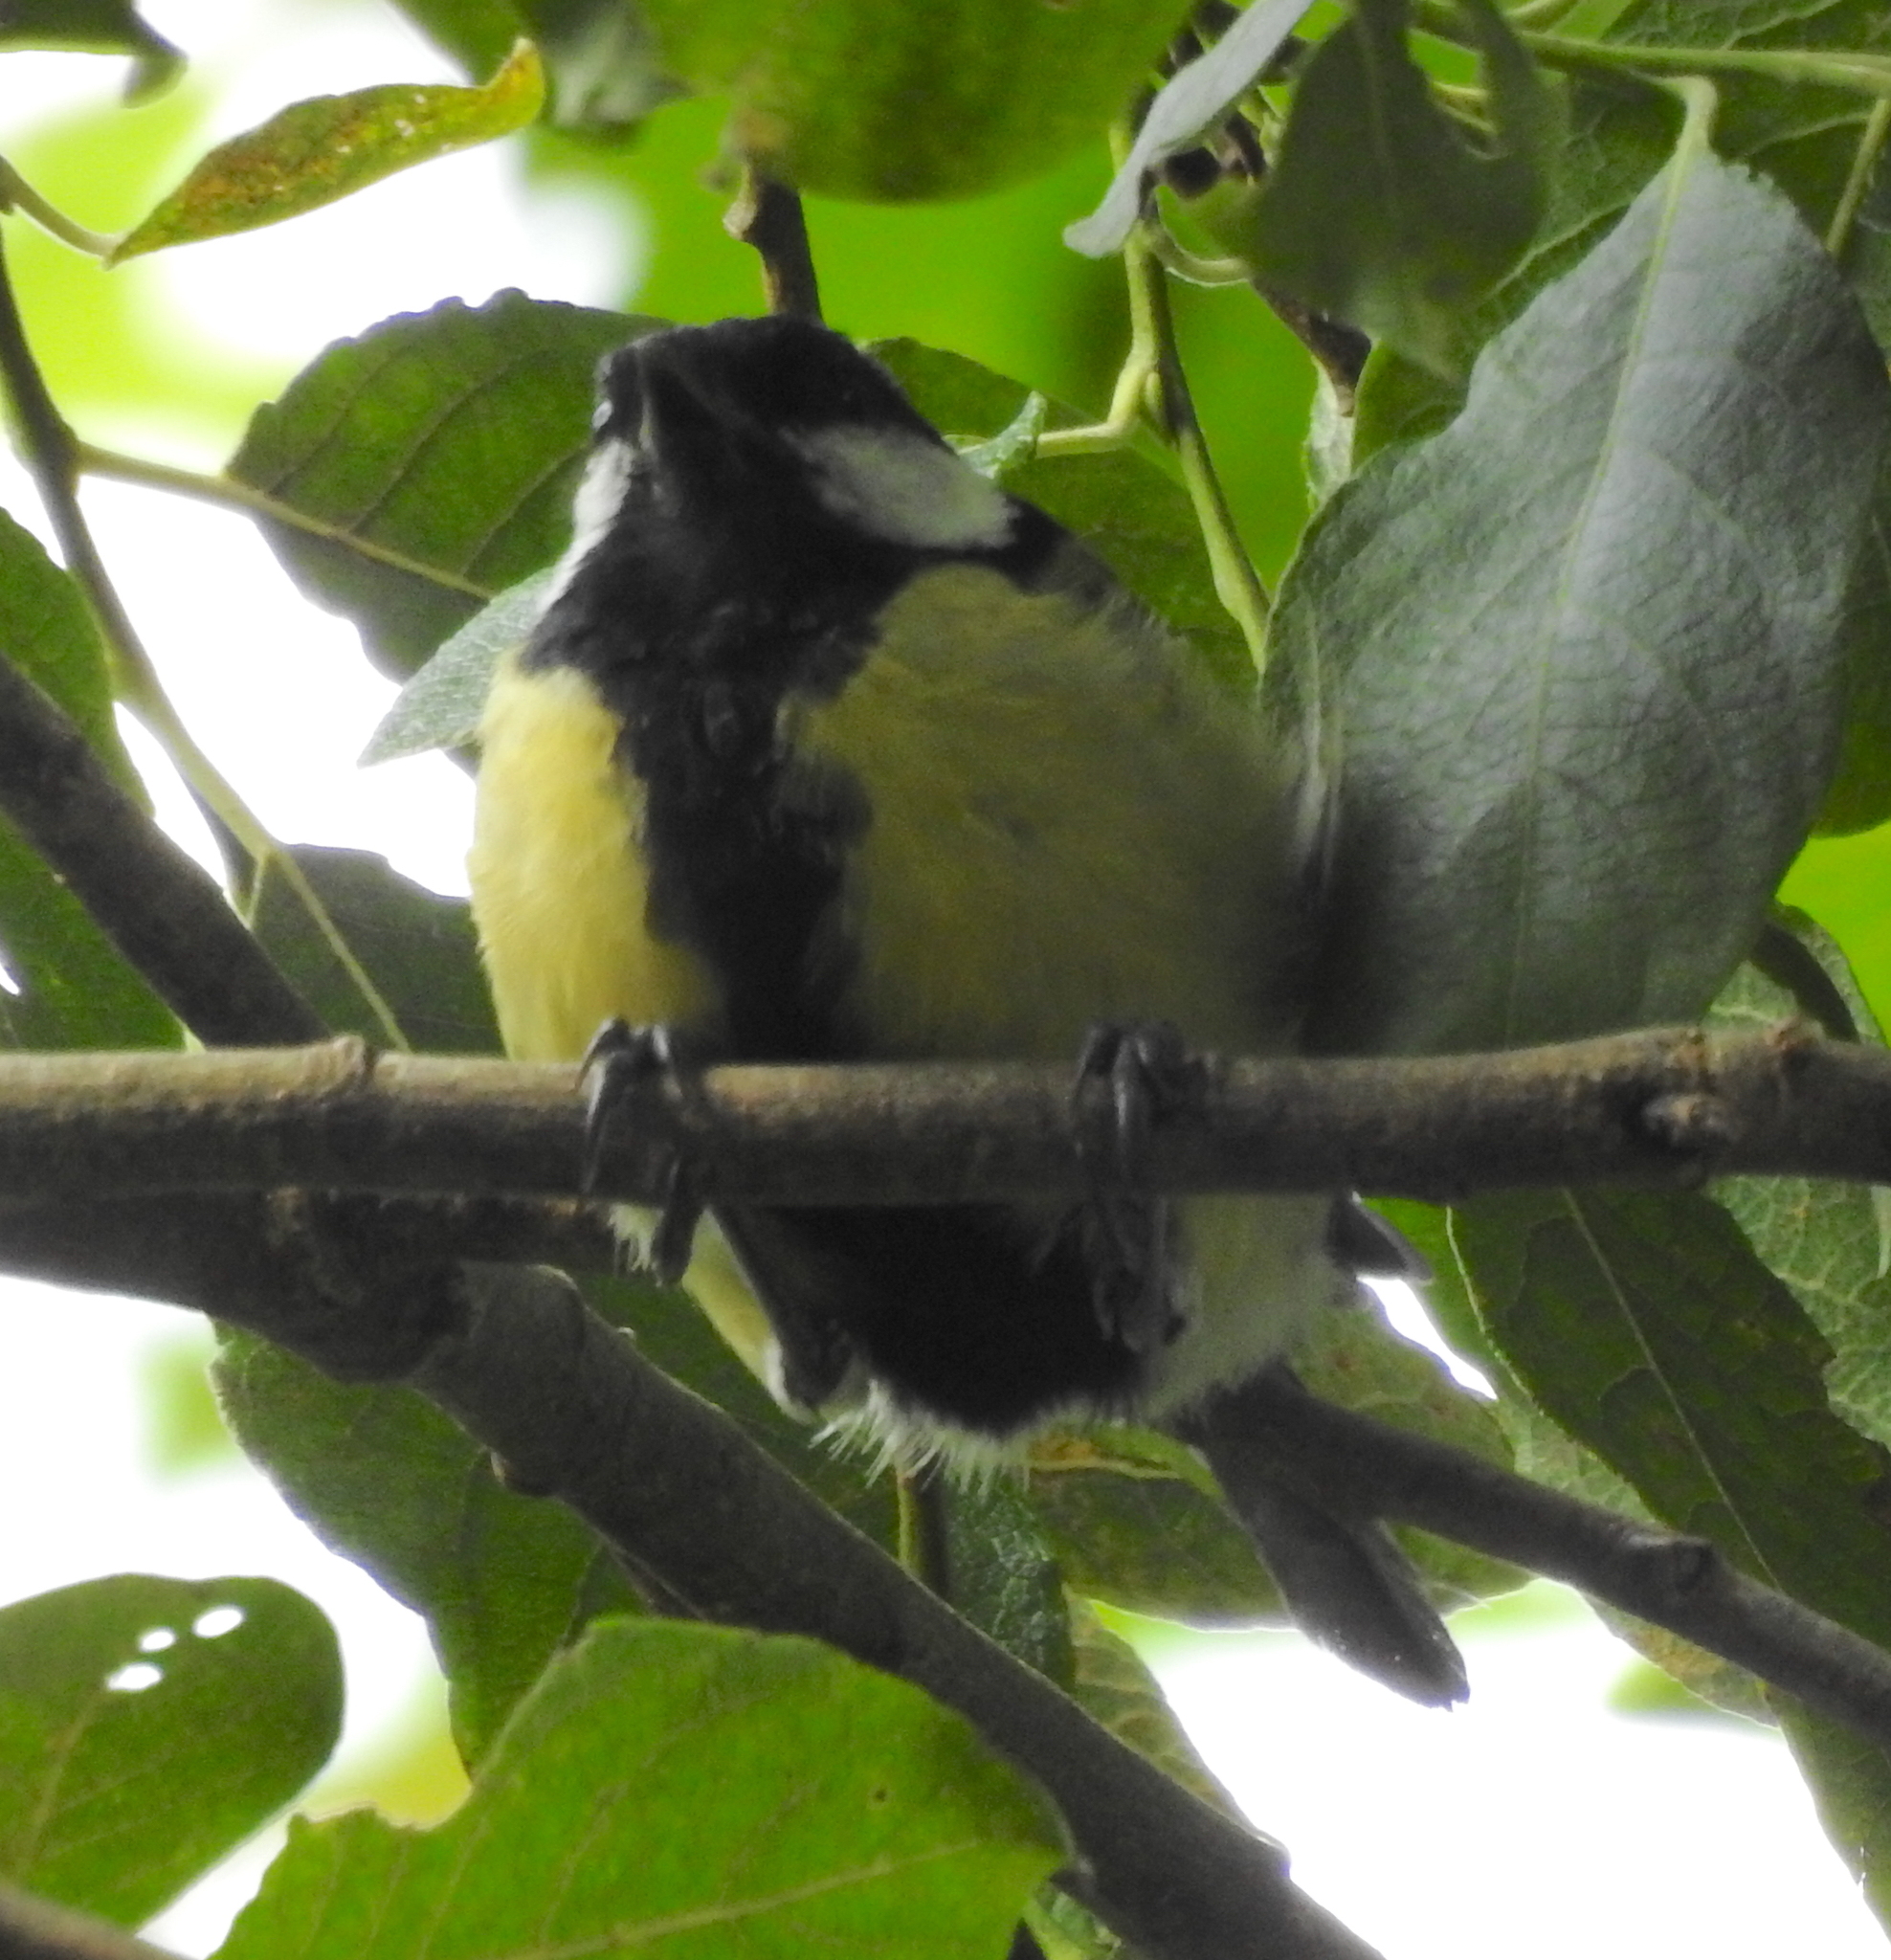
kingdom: Animalia
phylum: Chordata
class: Aves
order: Passeriformes
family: Paridae
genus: Parus
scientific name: Parus major
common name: Great tit
